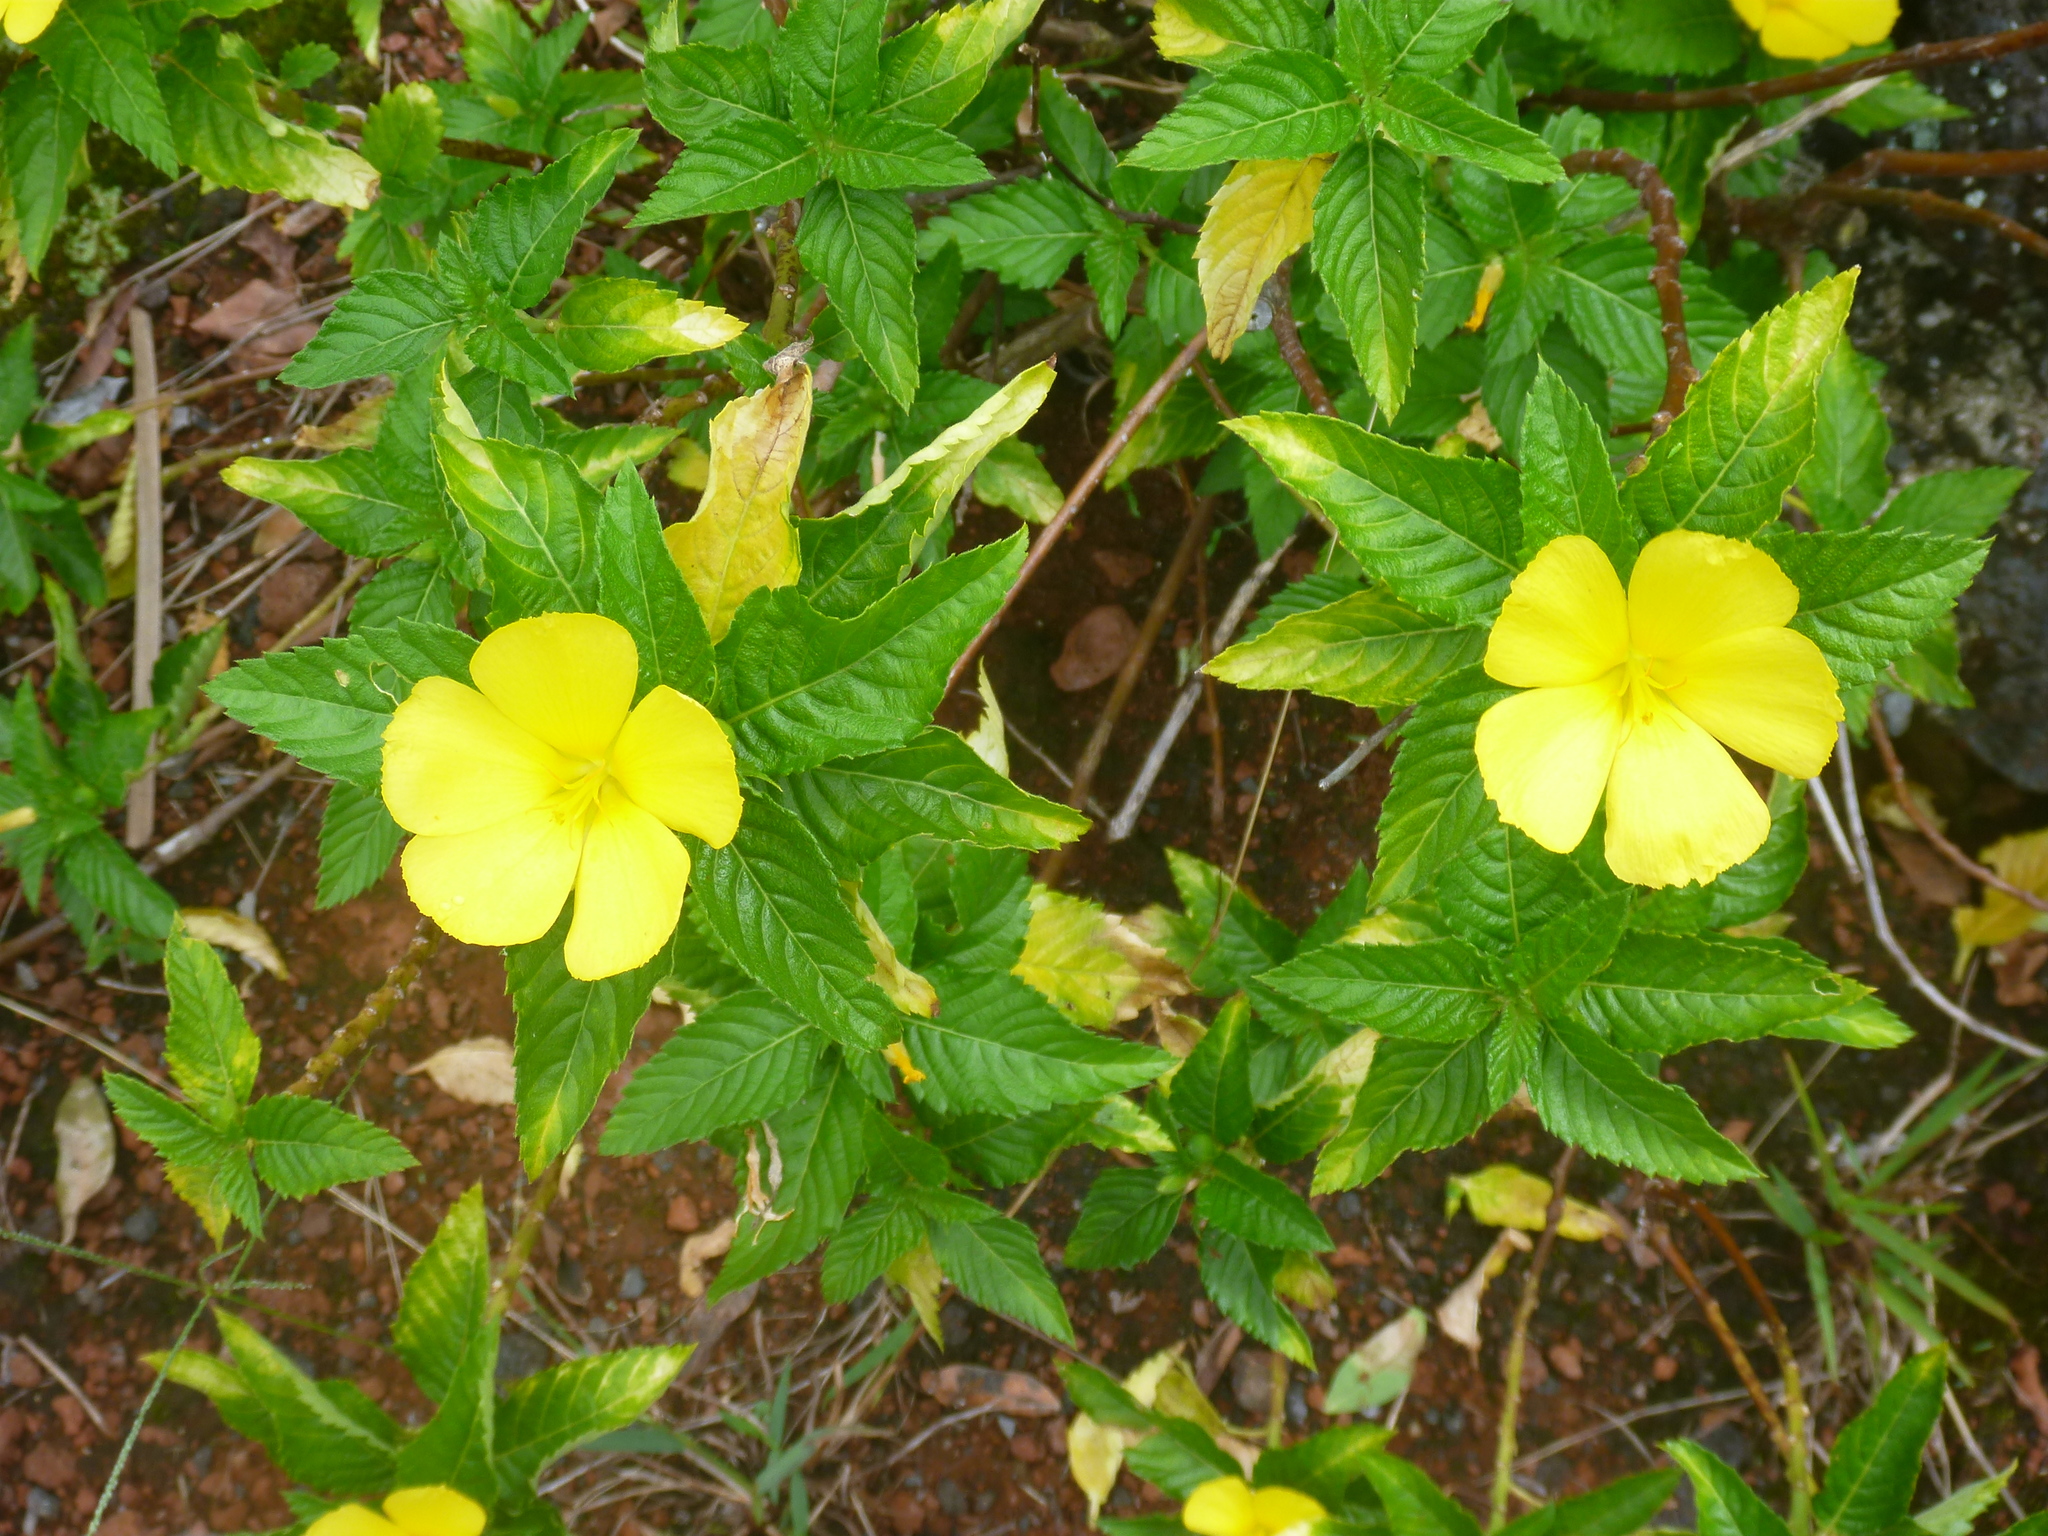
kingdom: Plantae
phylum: Tracheophyta
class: Magnoliopsida
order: Malpighiales
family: Turneraceae
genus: Turnera
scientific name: Turnera ulmifolia
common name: Ramgoat dashalong
